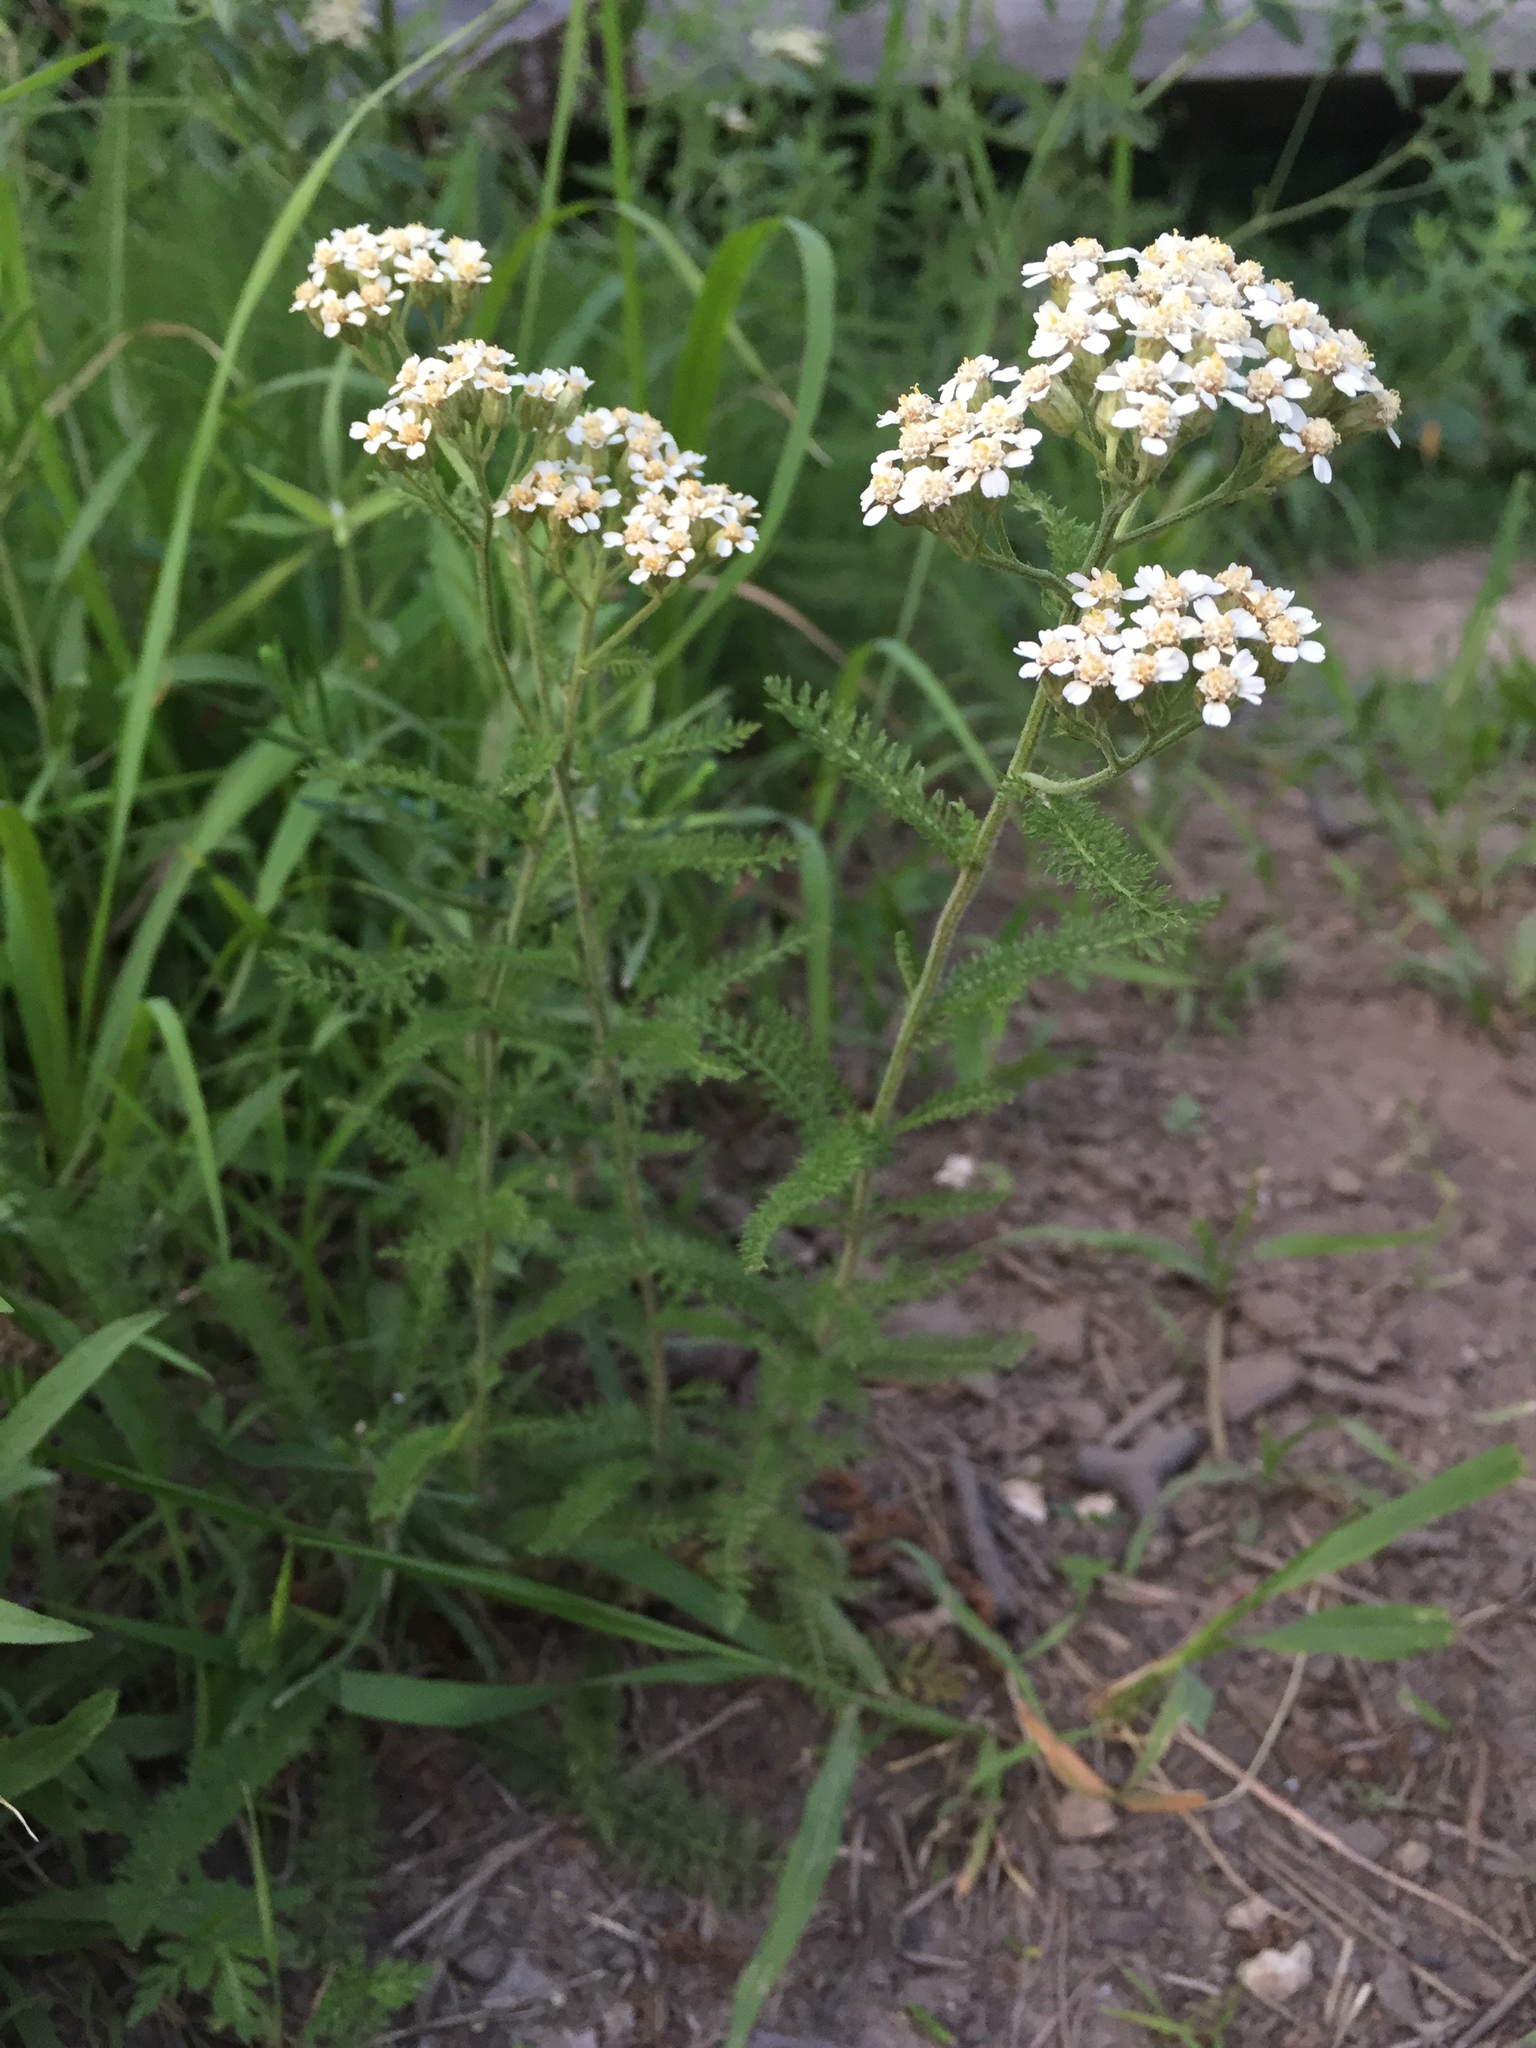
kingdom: Plantae
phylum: Tracheophyta
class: Magnoliopsida
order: Asterales
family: Asteraceae
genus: Achillea
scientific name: Achillea millefolium
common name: Yarrow
